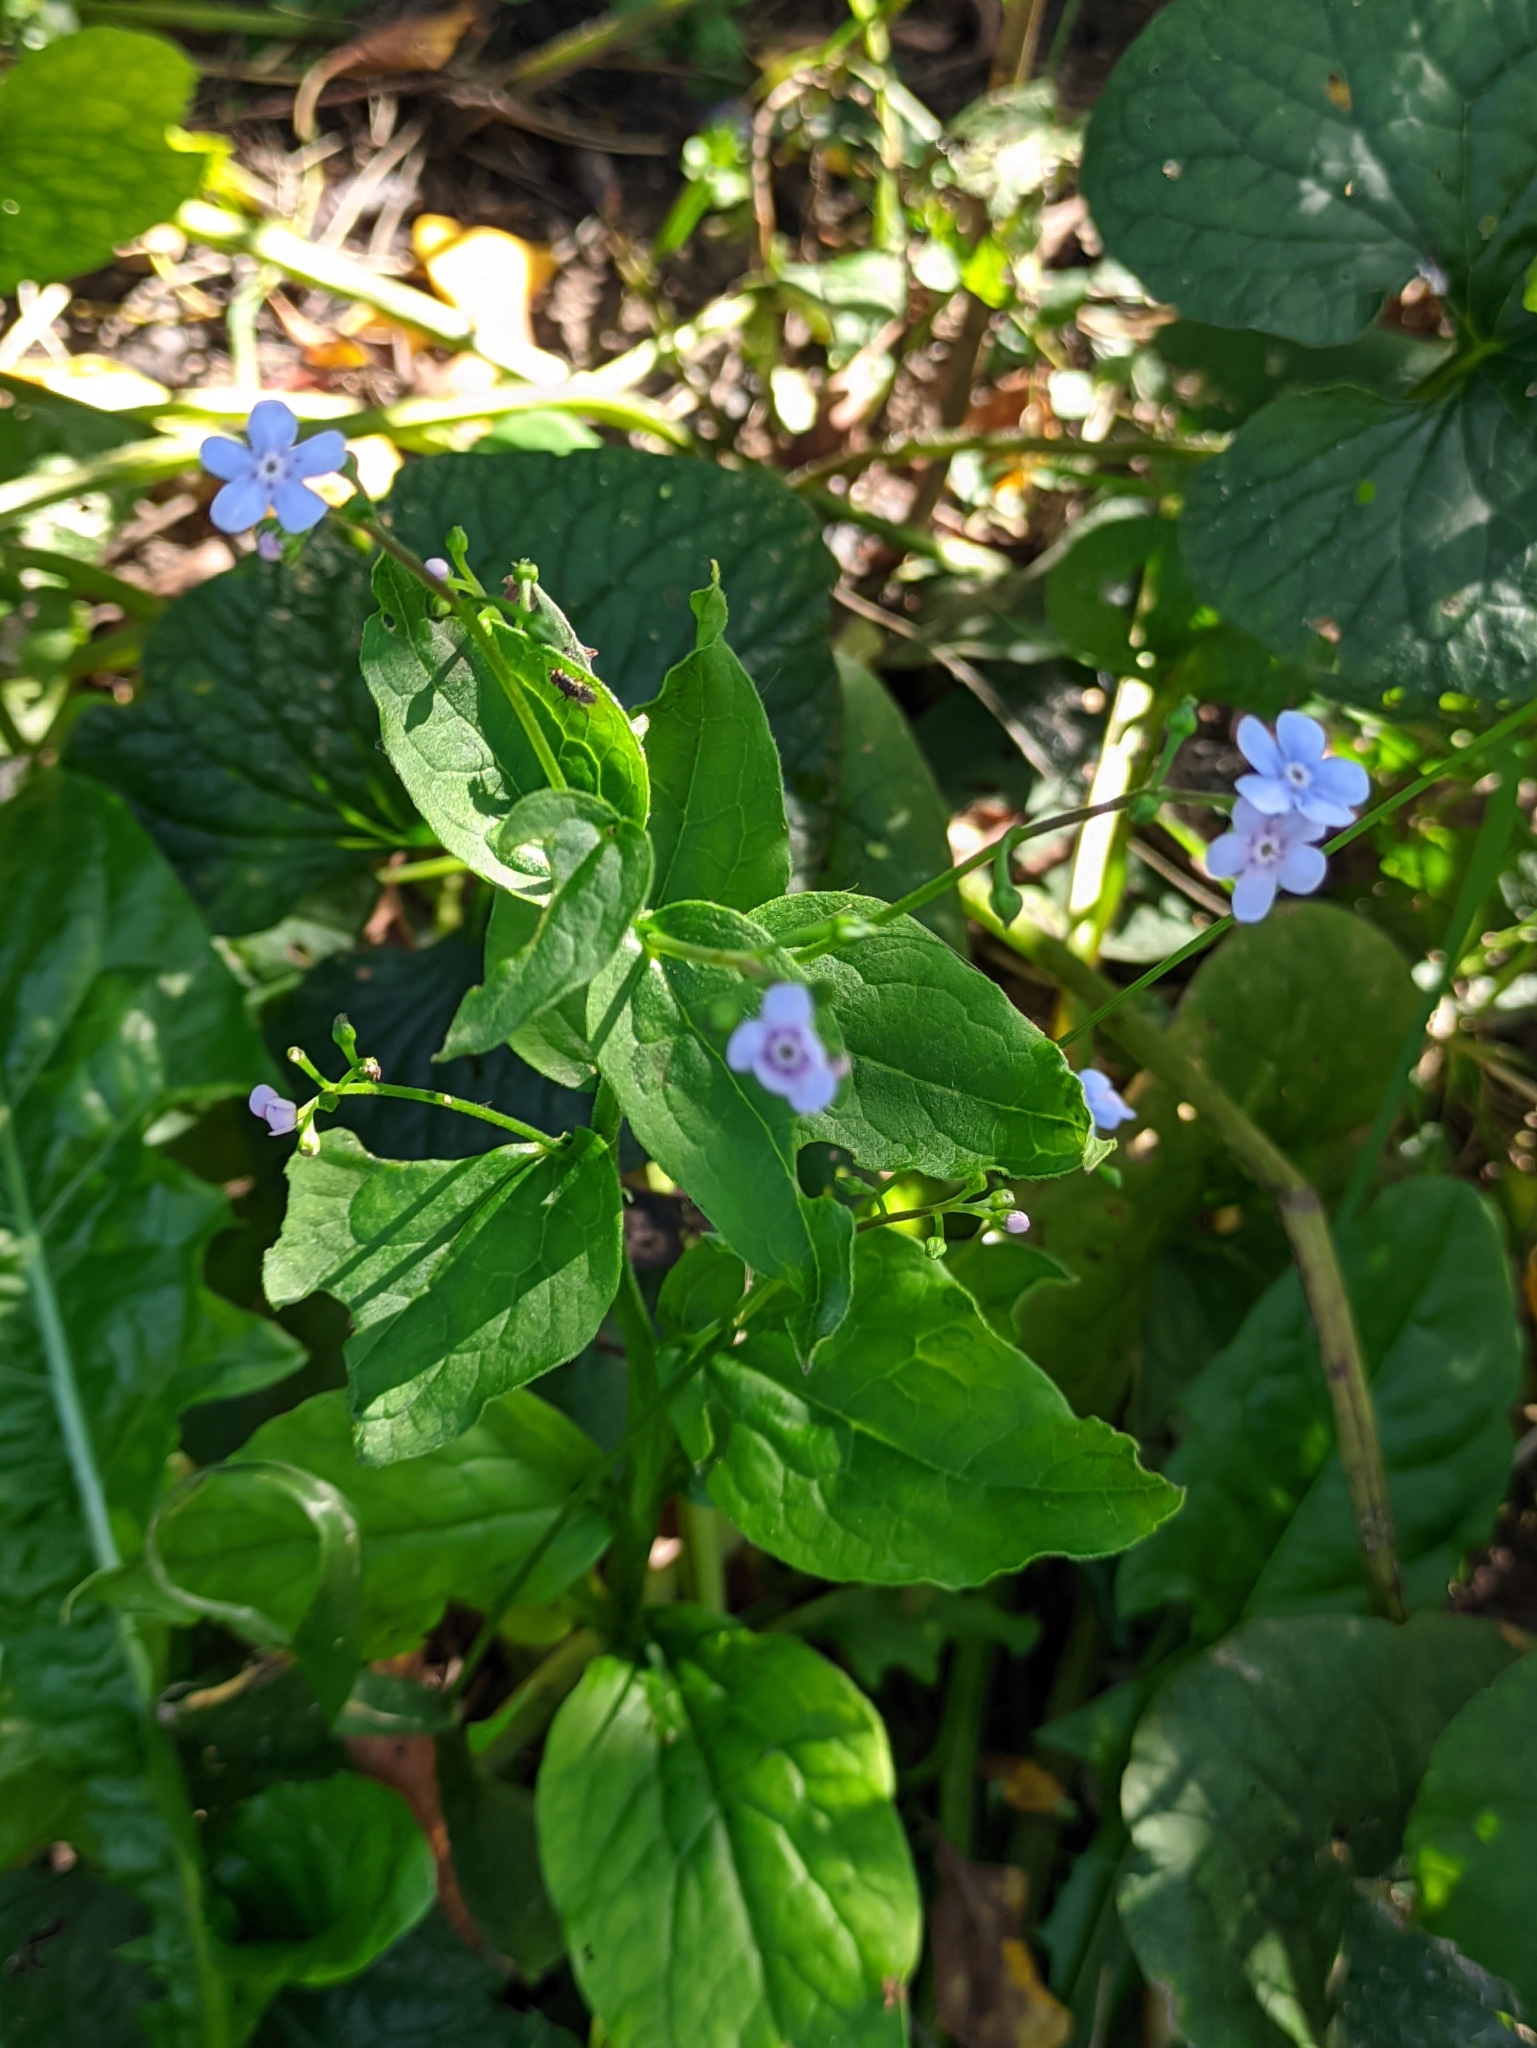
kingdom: Plantae
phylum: Tracheophyta
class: Magnoliopsida
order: Boraginales
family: Boraginaceae
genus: Brunnera
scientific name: Brunnera macrophylla
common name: Great forget-me-not
